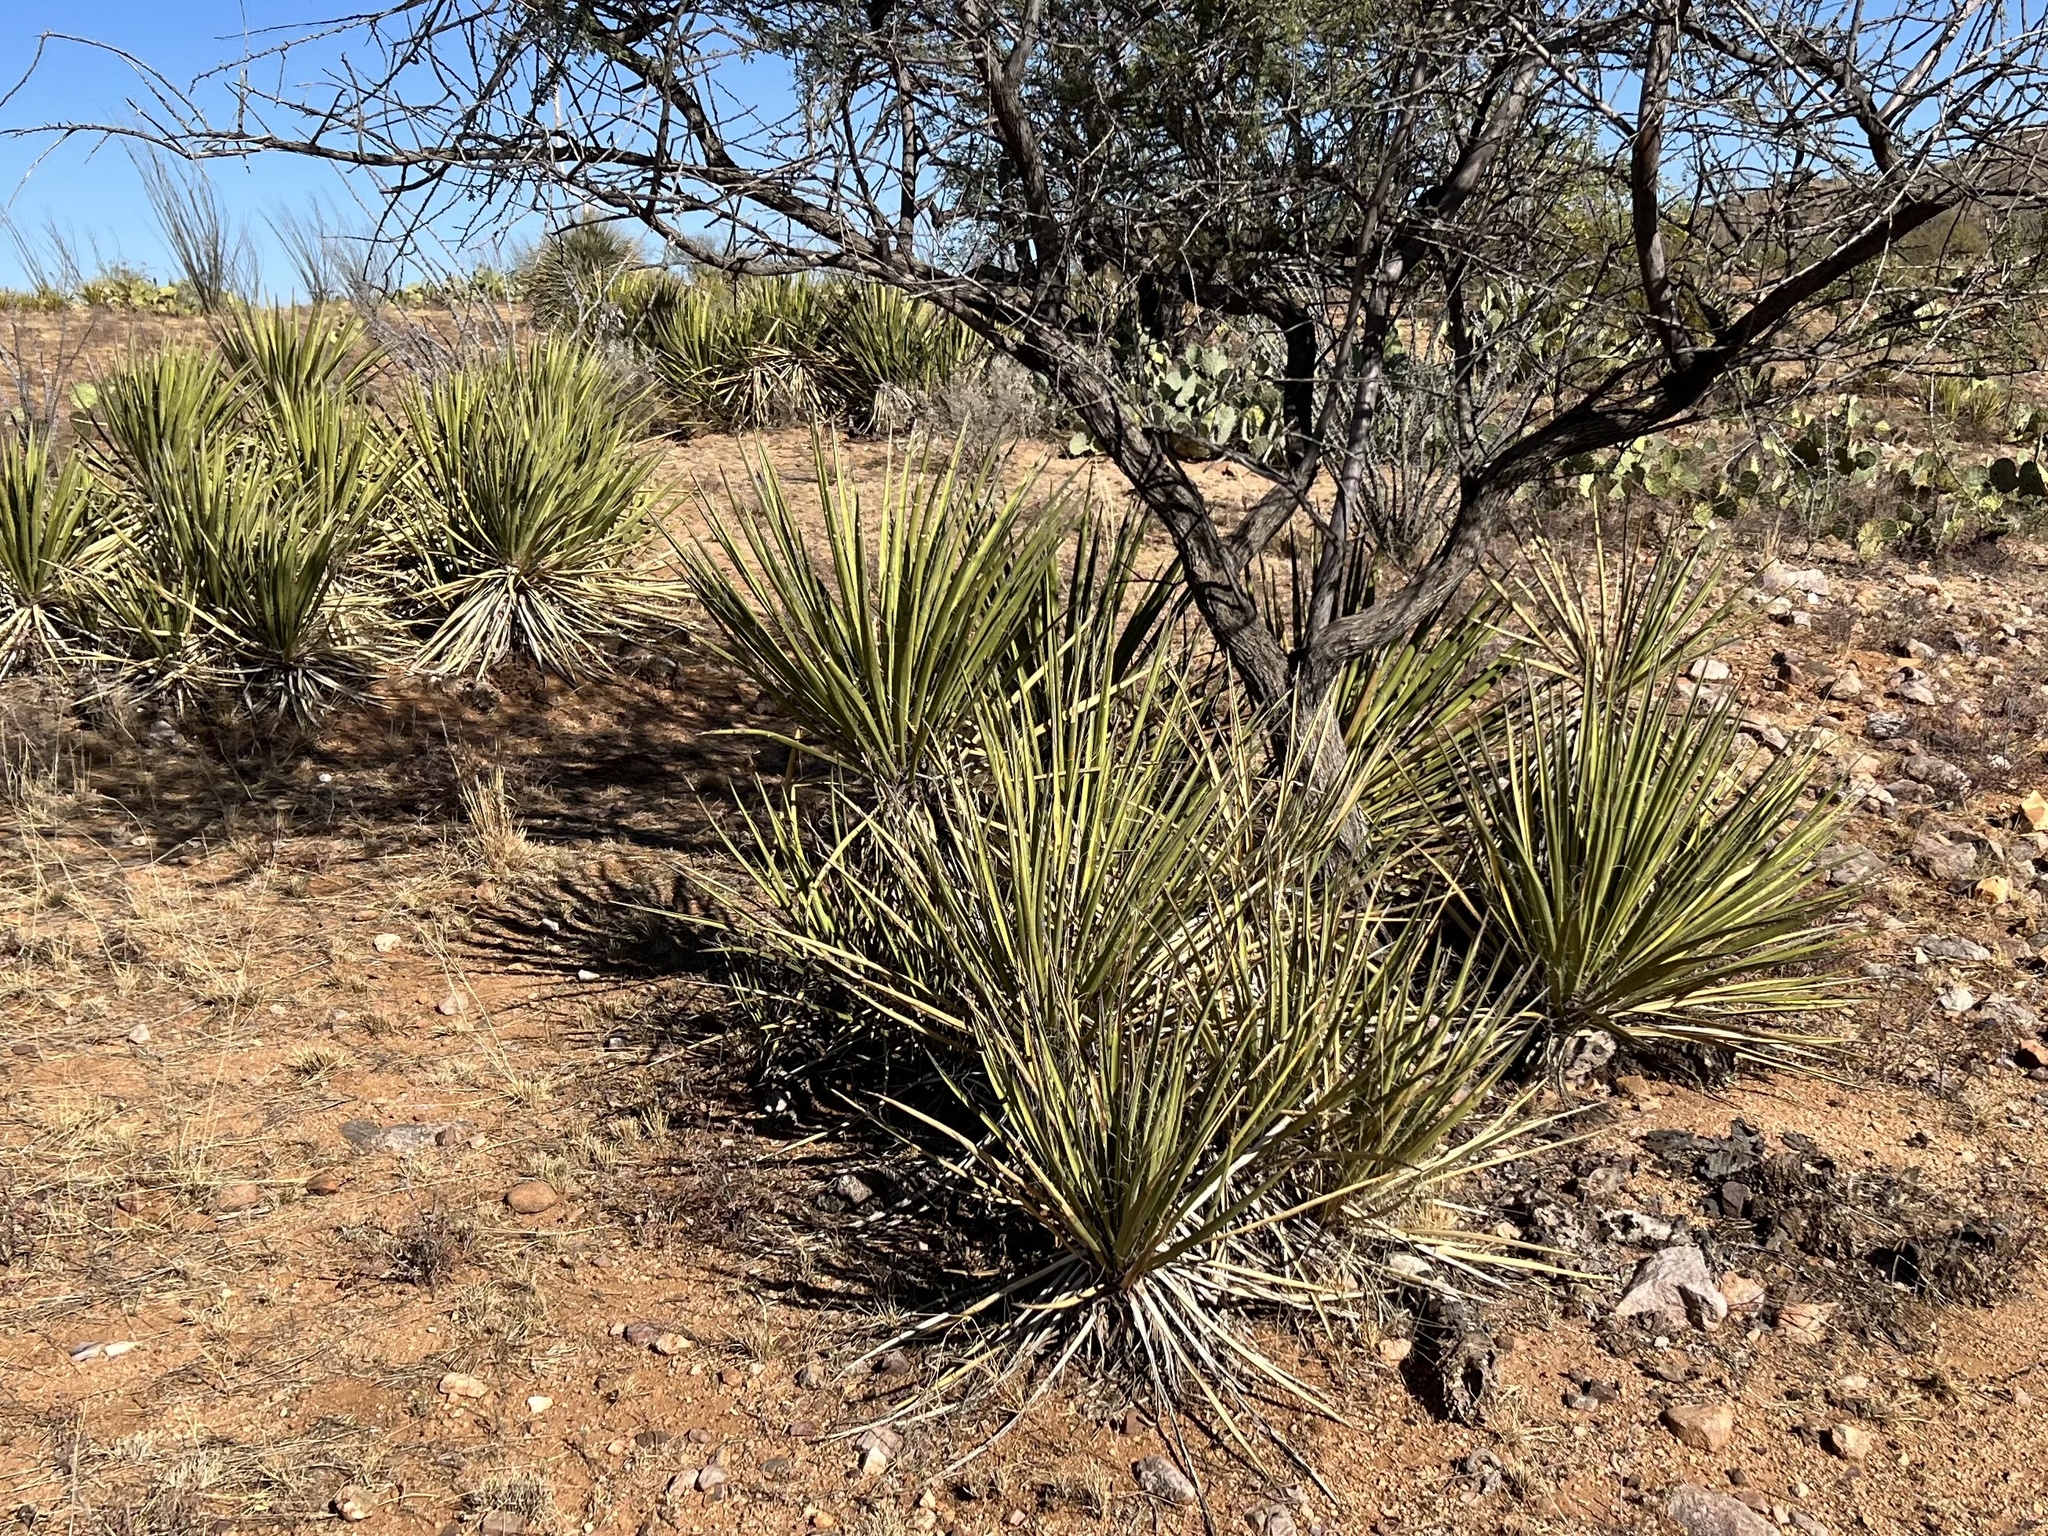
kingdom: Plantae
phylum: Tracheophyta
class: Liliopsida
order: Asparagales
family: Asparagaceae
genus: Yucca
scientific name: Yucca baccata
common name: Banana yucca
